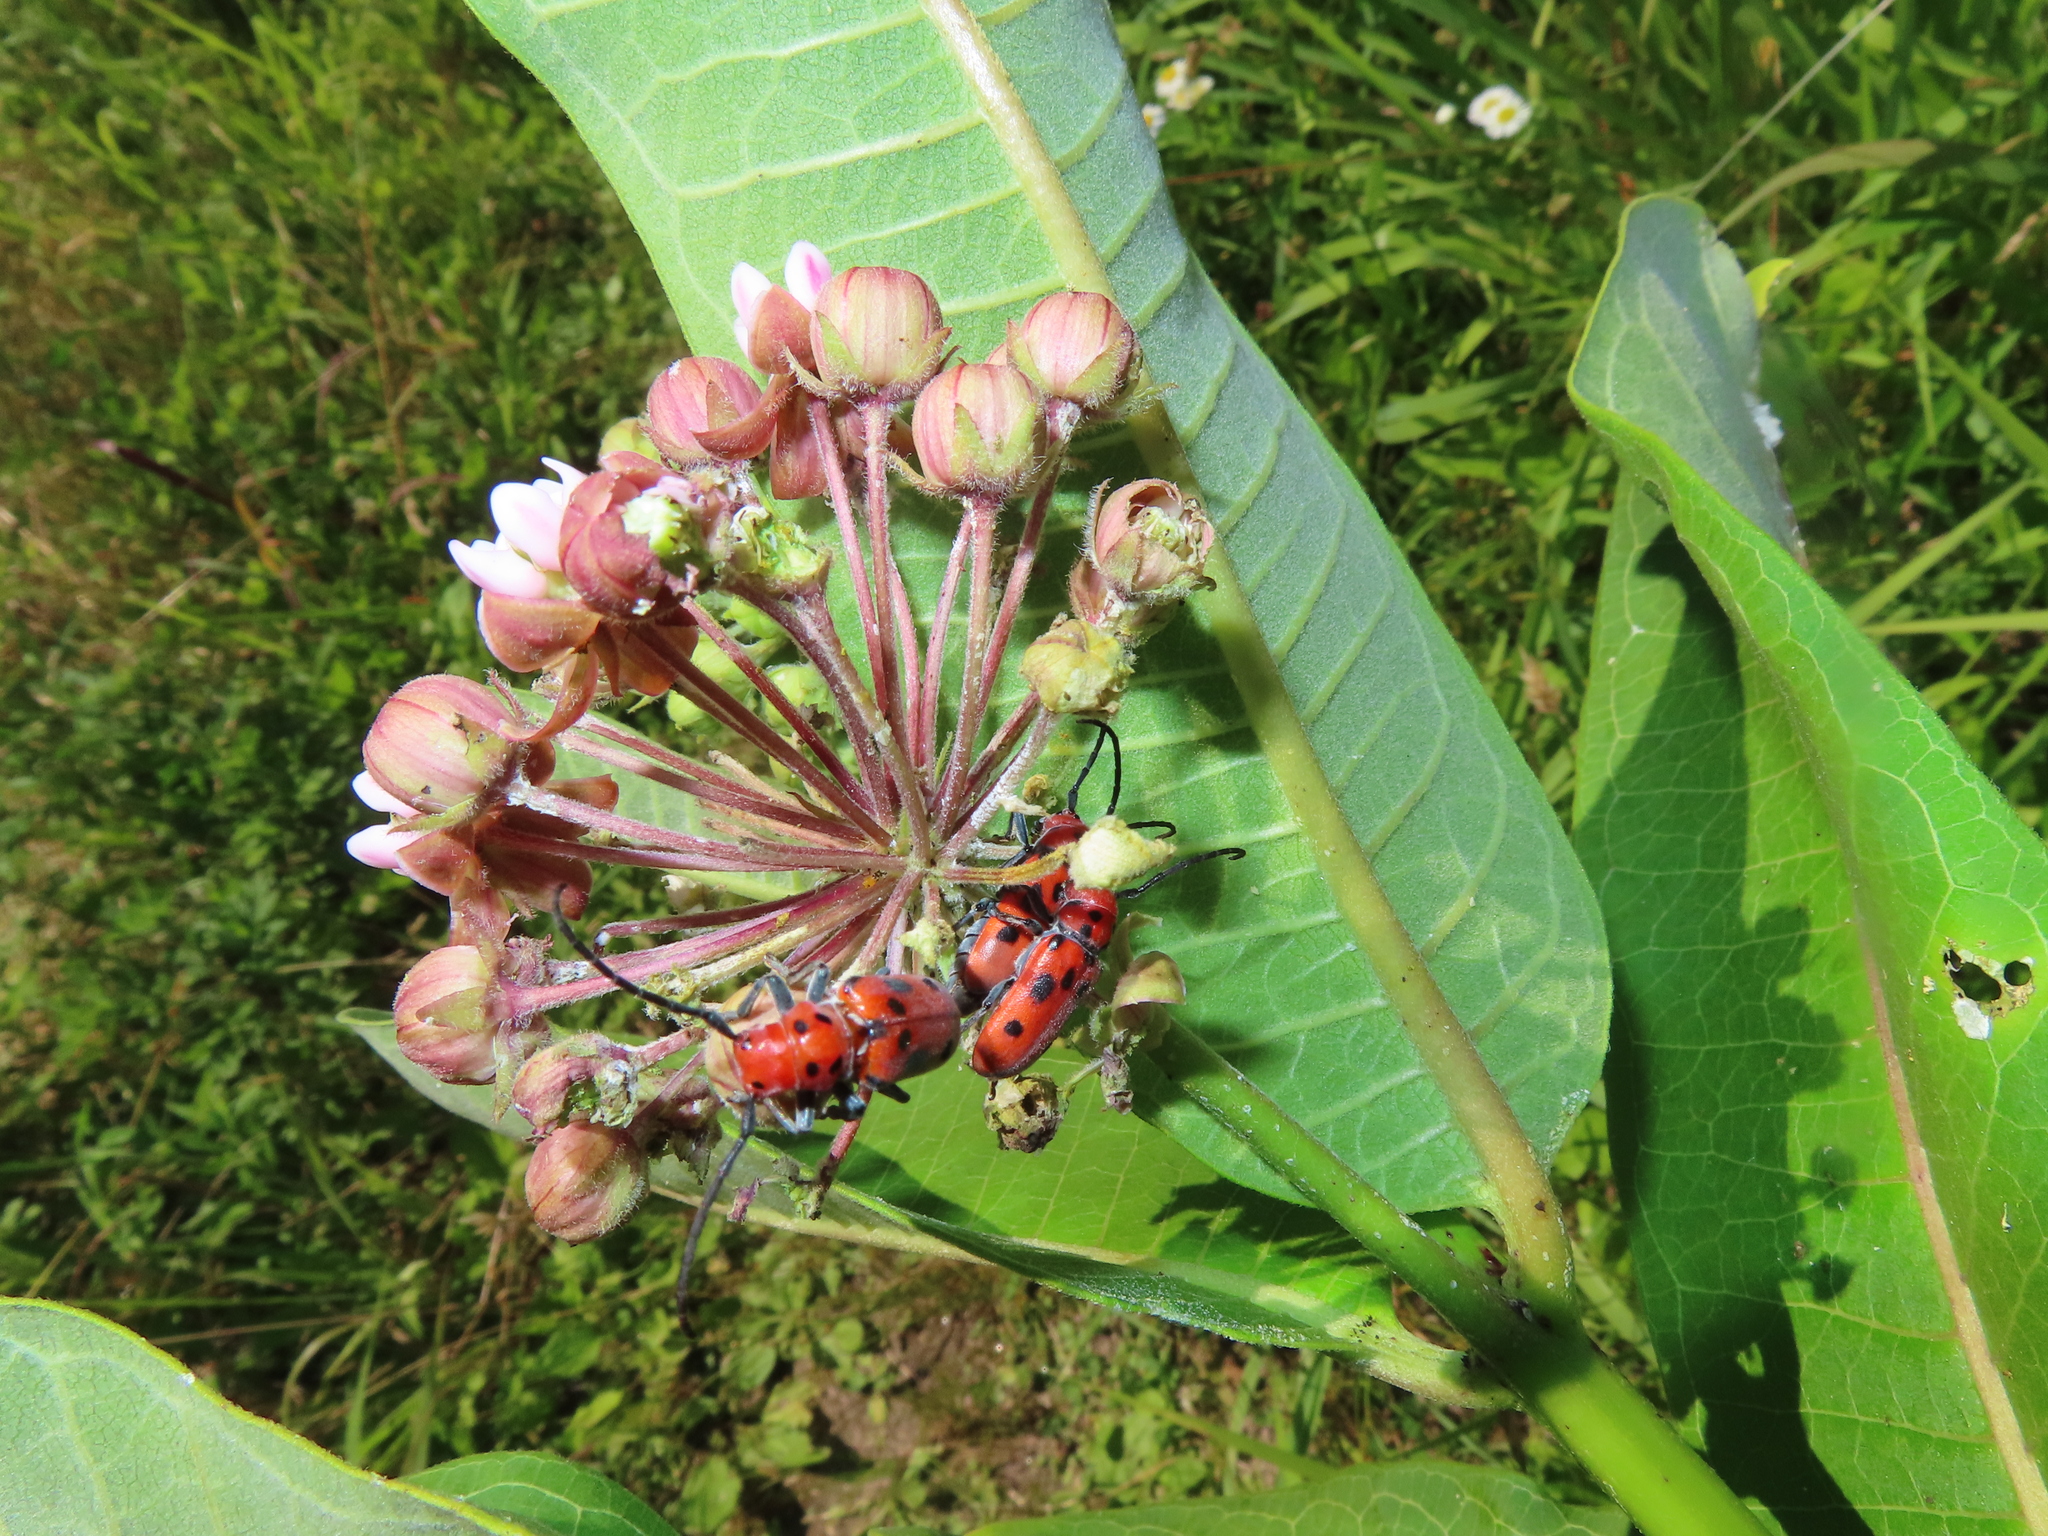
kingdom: Animalia
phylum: Arthropoda
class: Insecta
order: Coleoptera
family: Cerambycidae
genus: Tetraopes
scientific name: Tetraopes tetrophthalmus
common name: Red milkweed beetle
